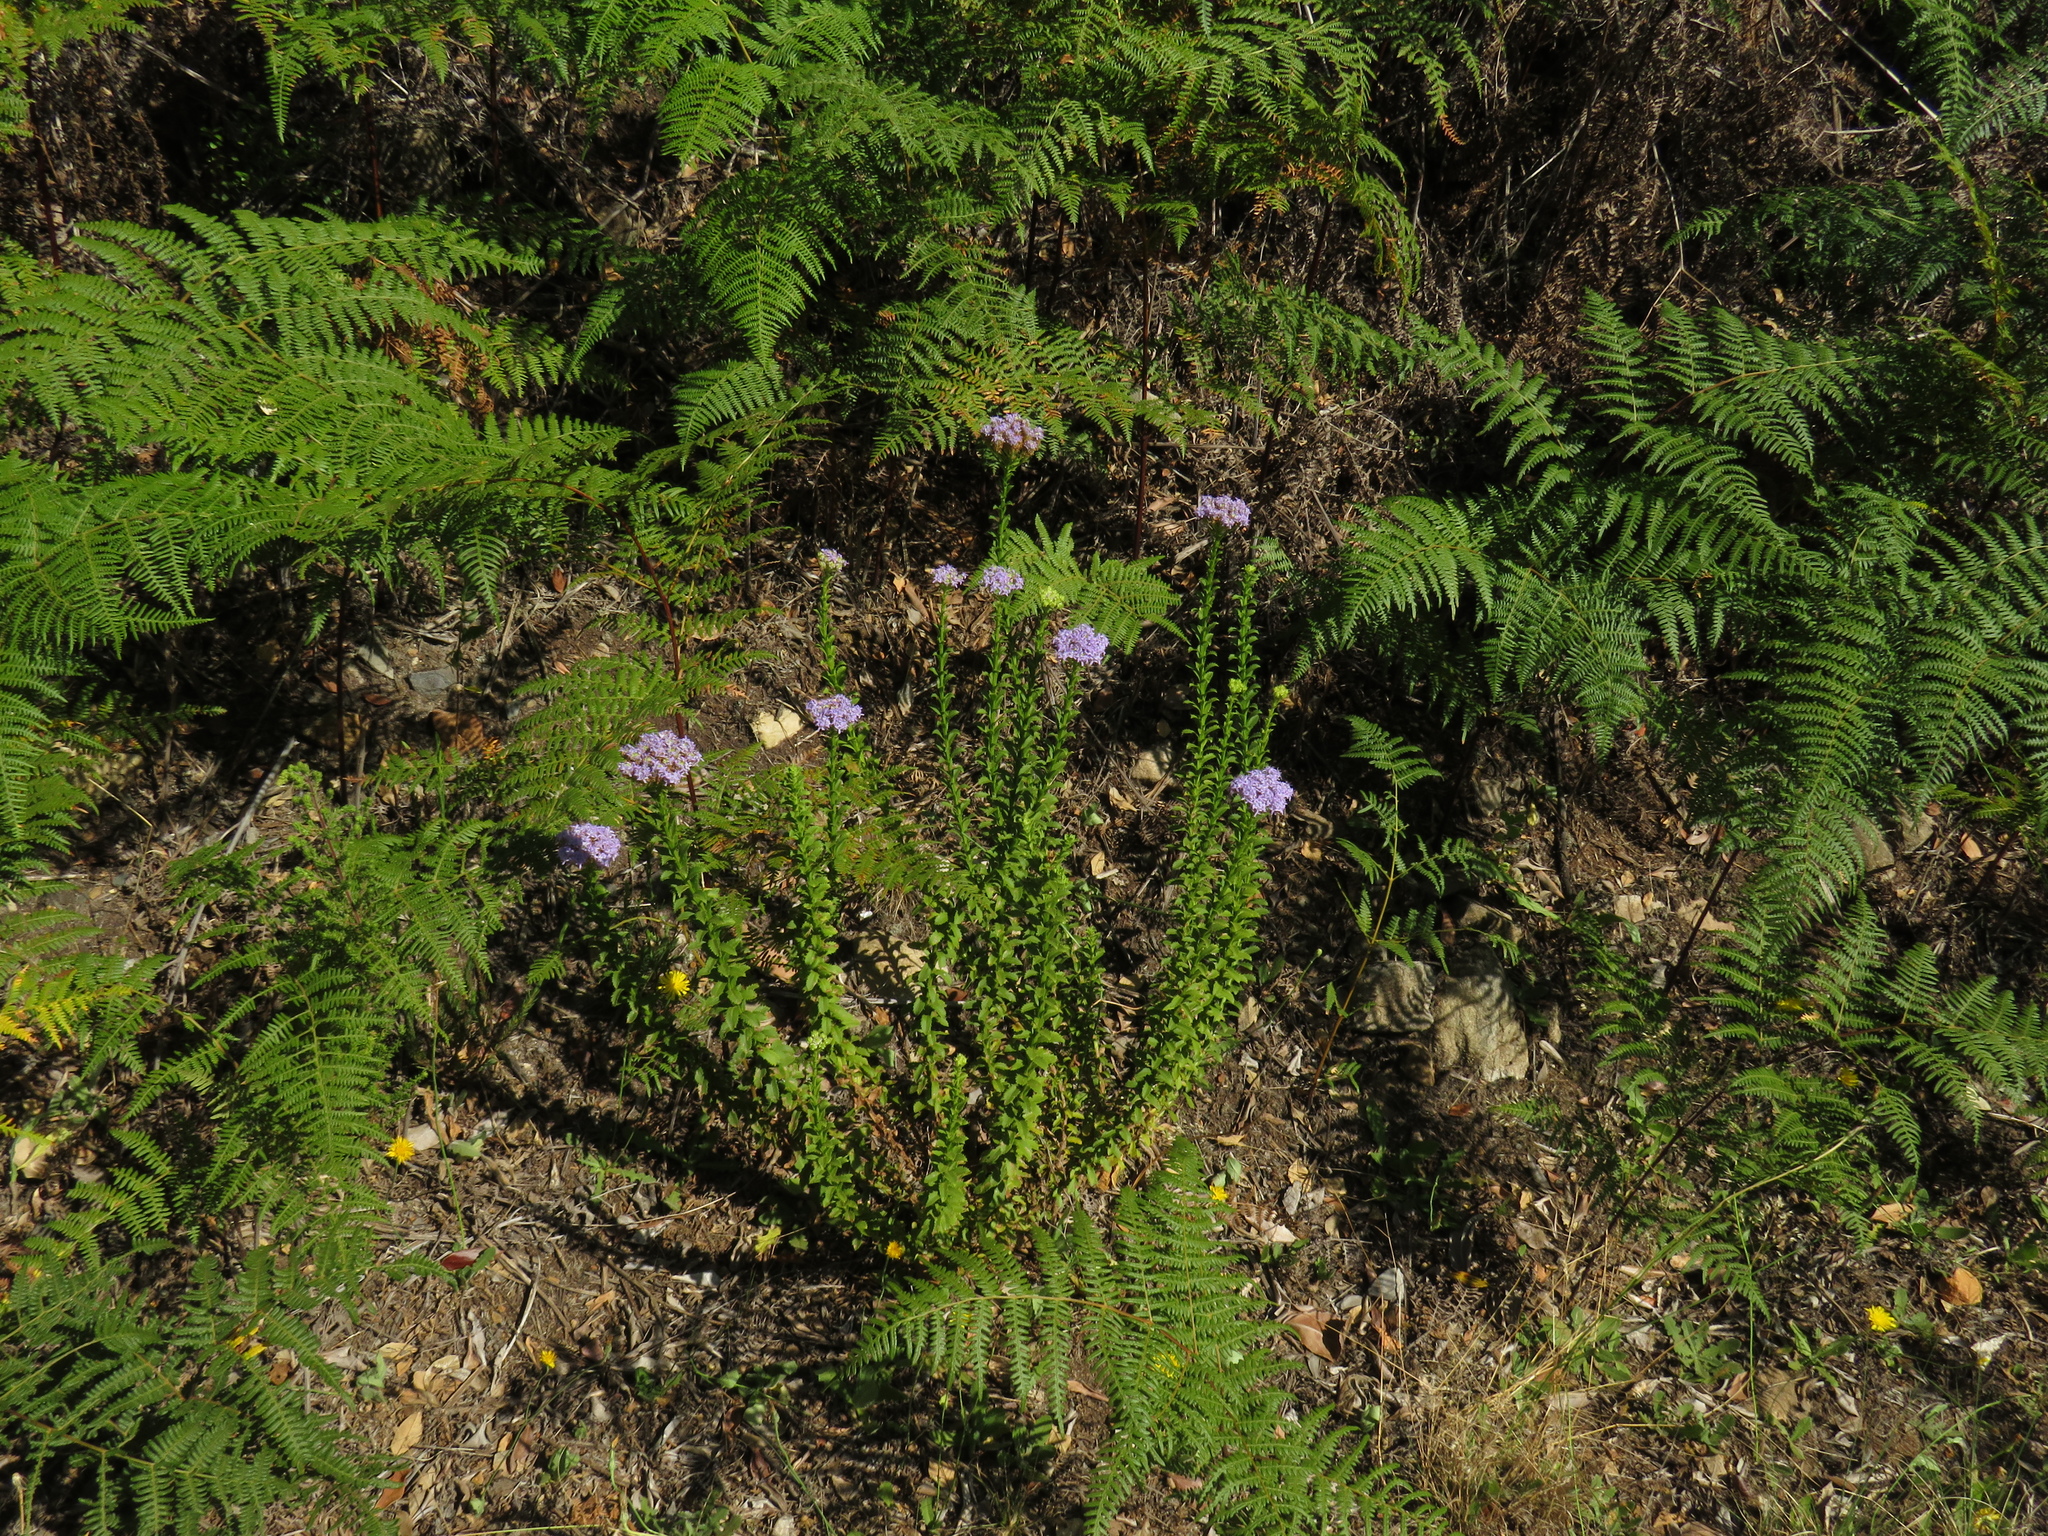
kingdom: Plantae
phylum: Tracheophyta
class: Magnoliopsida
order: Lamiales
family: Scrophulariaceae
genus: Pseudoselago
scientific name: Pseudoselago serrata
